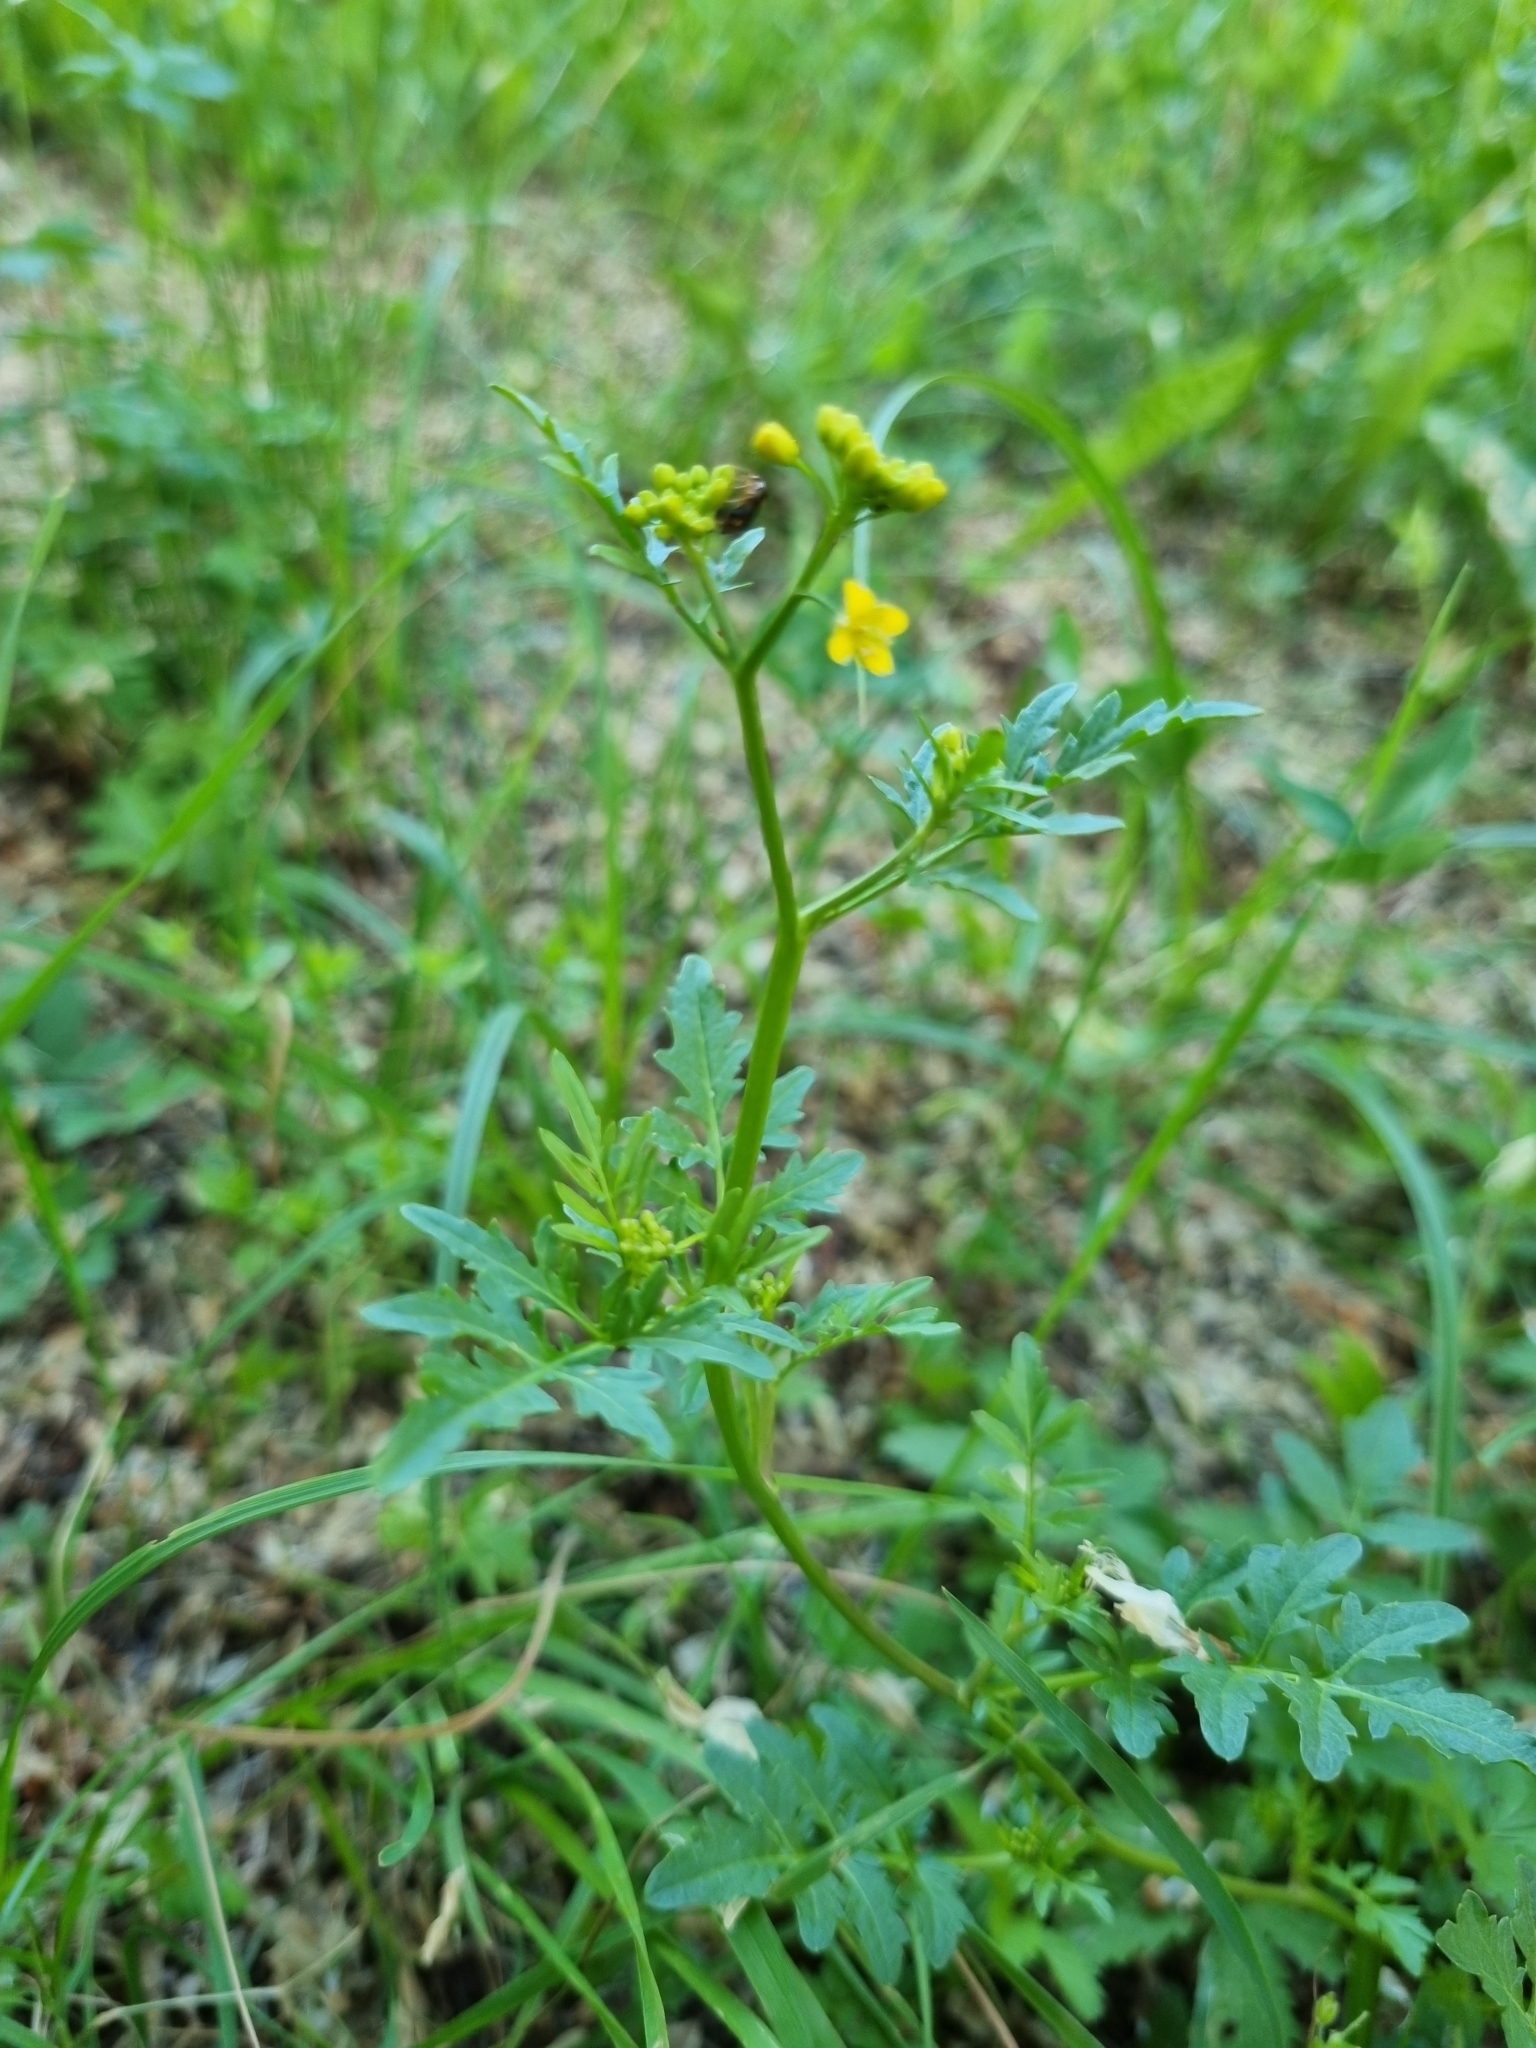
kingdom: Plantae
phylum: Tracheophyta
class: Magnoliopsida
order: Brassicales
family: Brassicaceae
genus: Rorippa
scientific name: Rorippa sylvestris
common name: Creeping yellowcress
